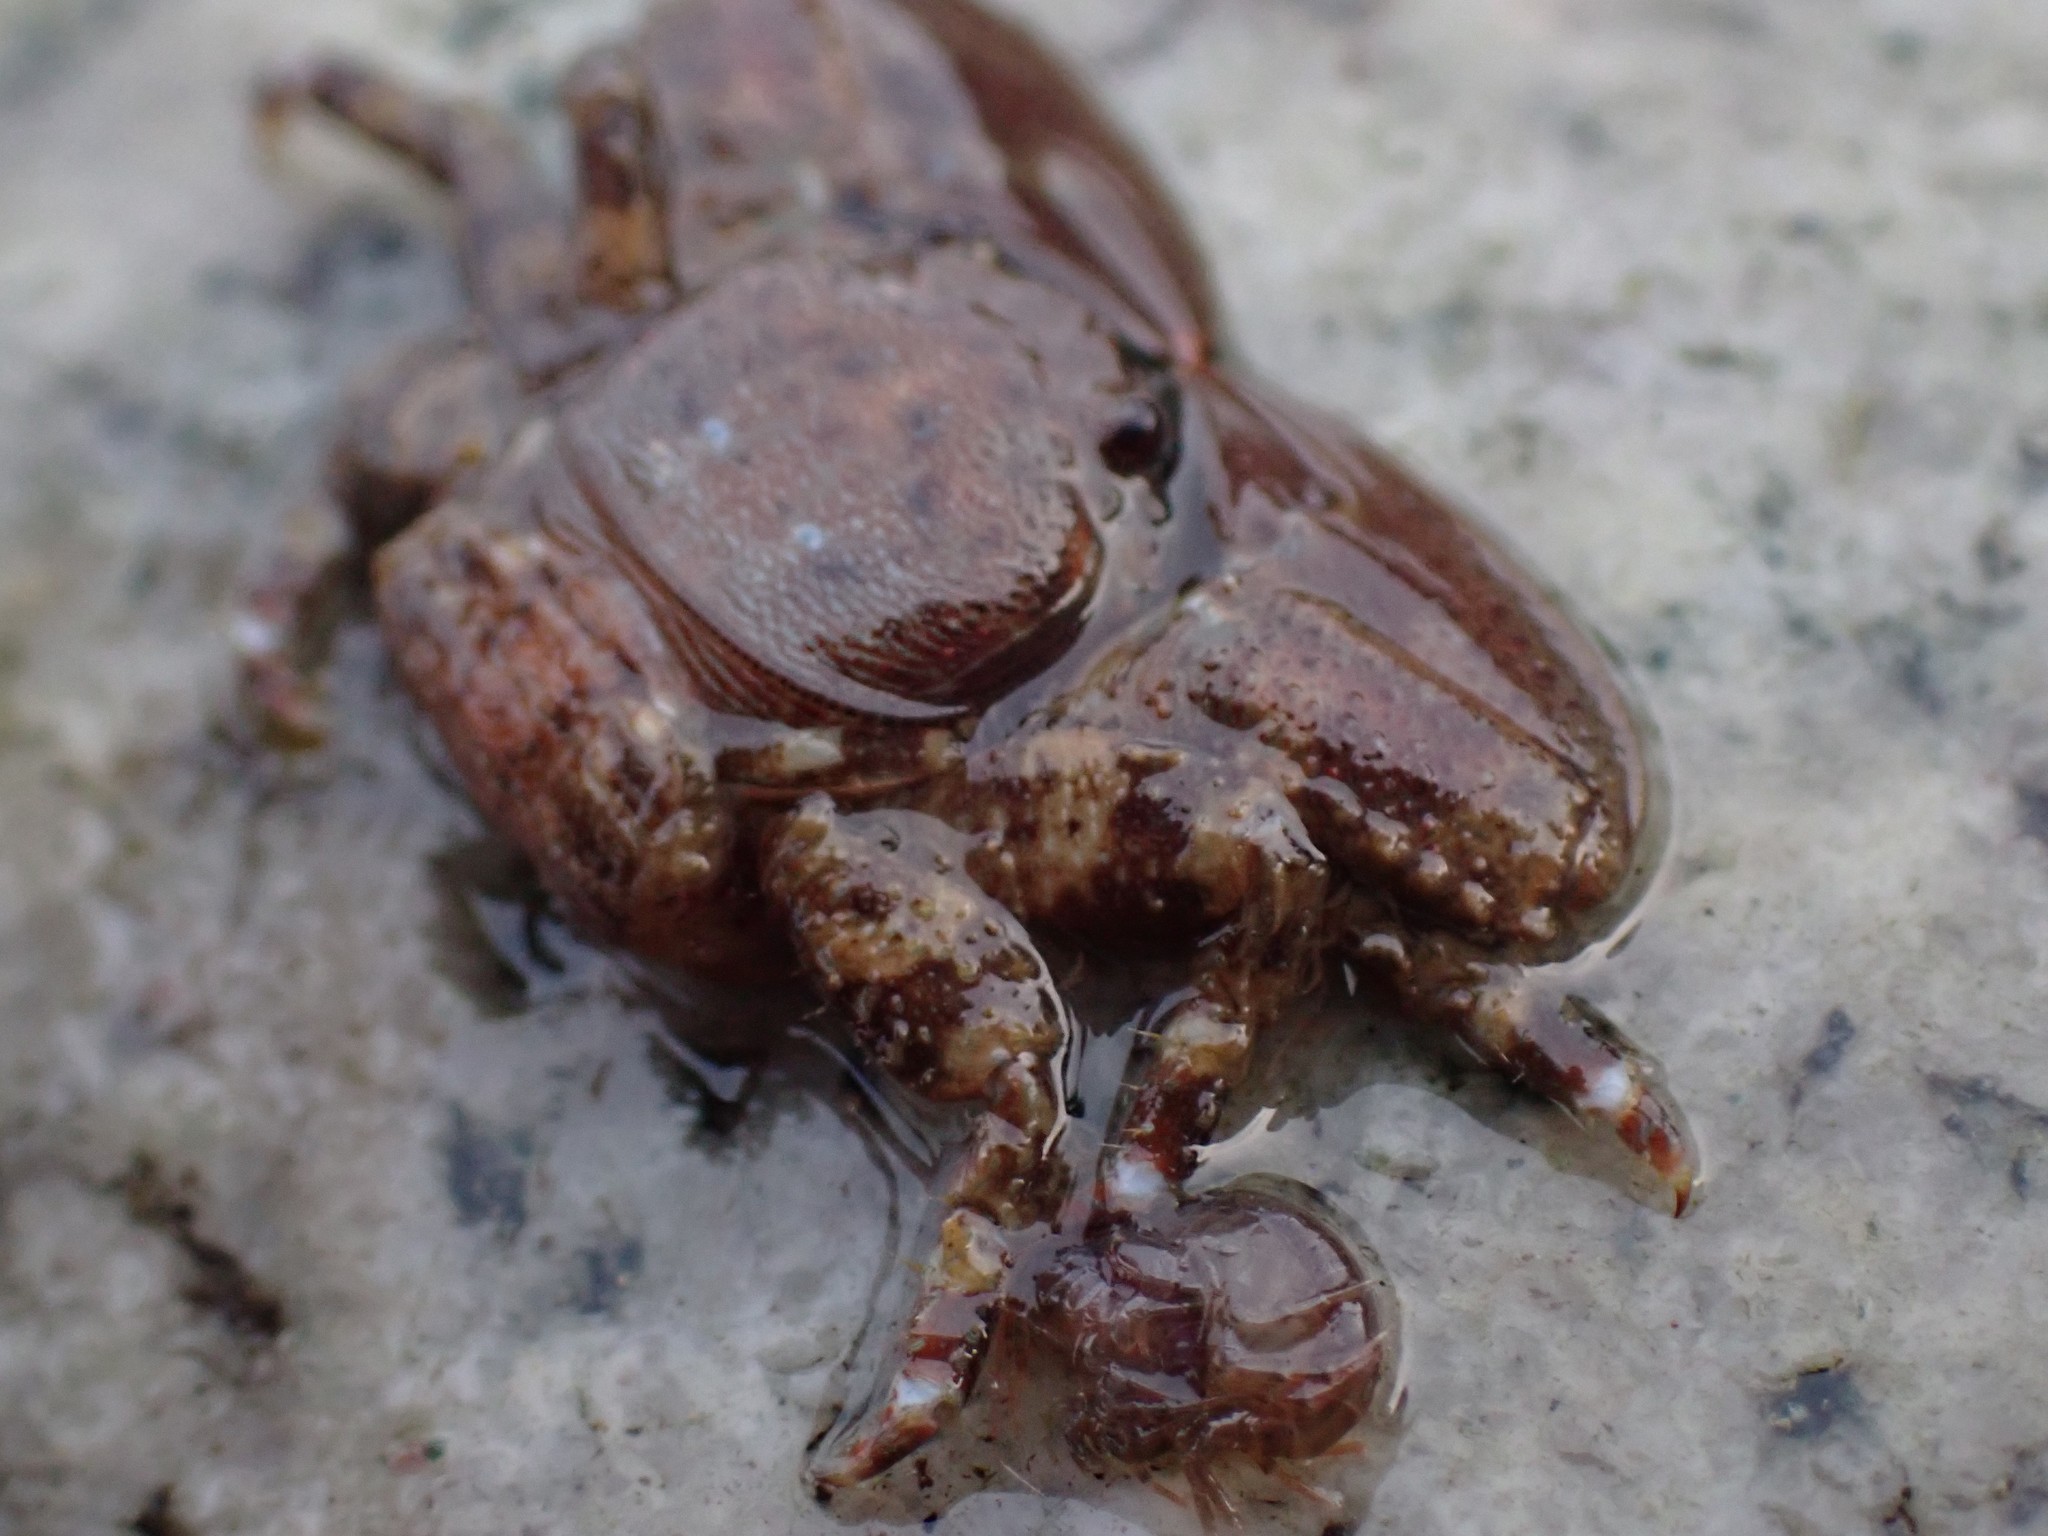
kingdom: Animalia
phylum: Arthropoda
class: Malacostraca
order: Decapoda
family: Porcellanidae
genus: Petrolisthes
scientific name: Petrolisthes eriomerus
